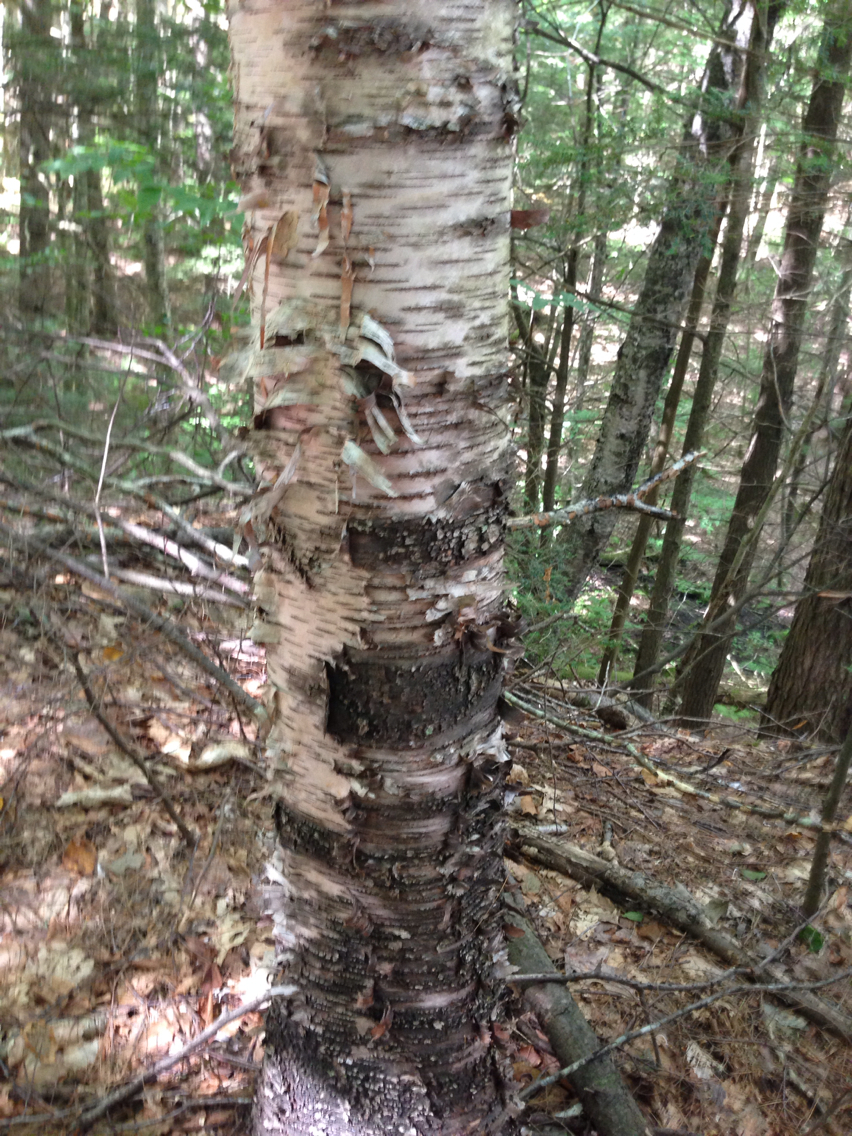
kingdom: Plantae
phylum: Tracheophyta
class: Magnoliopsida
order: Fagales
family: Betulaceae
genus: Betula
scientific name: Betula papyrifera
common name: Paper birch
